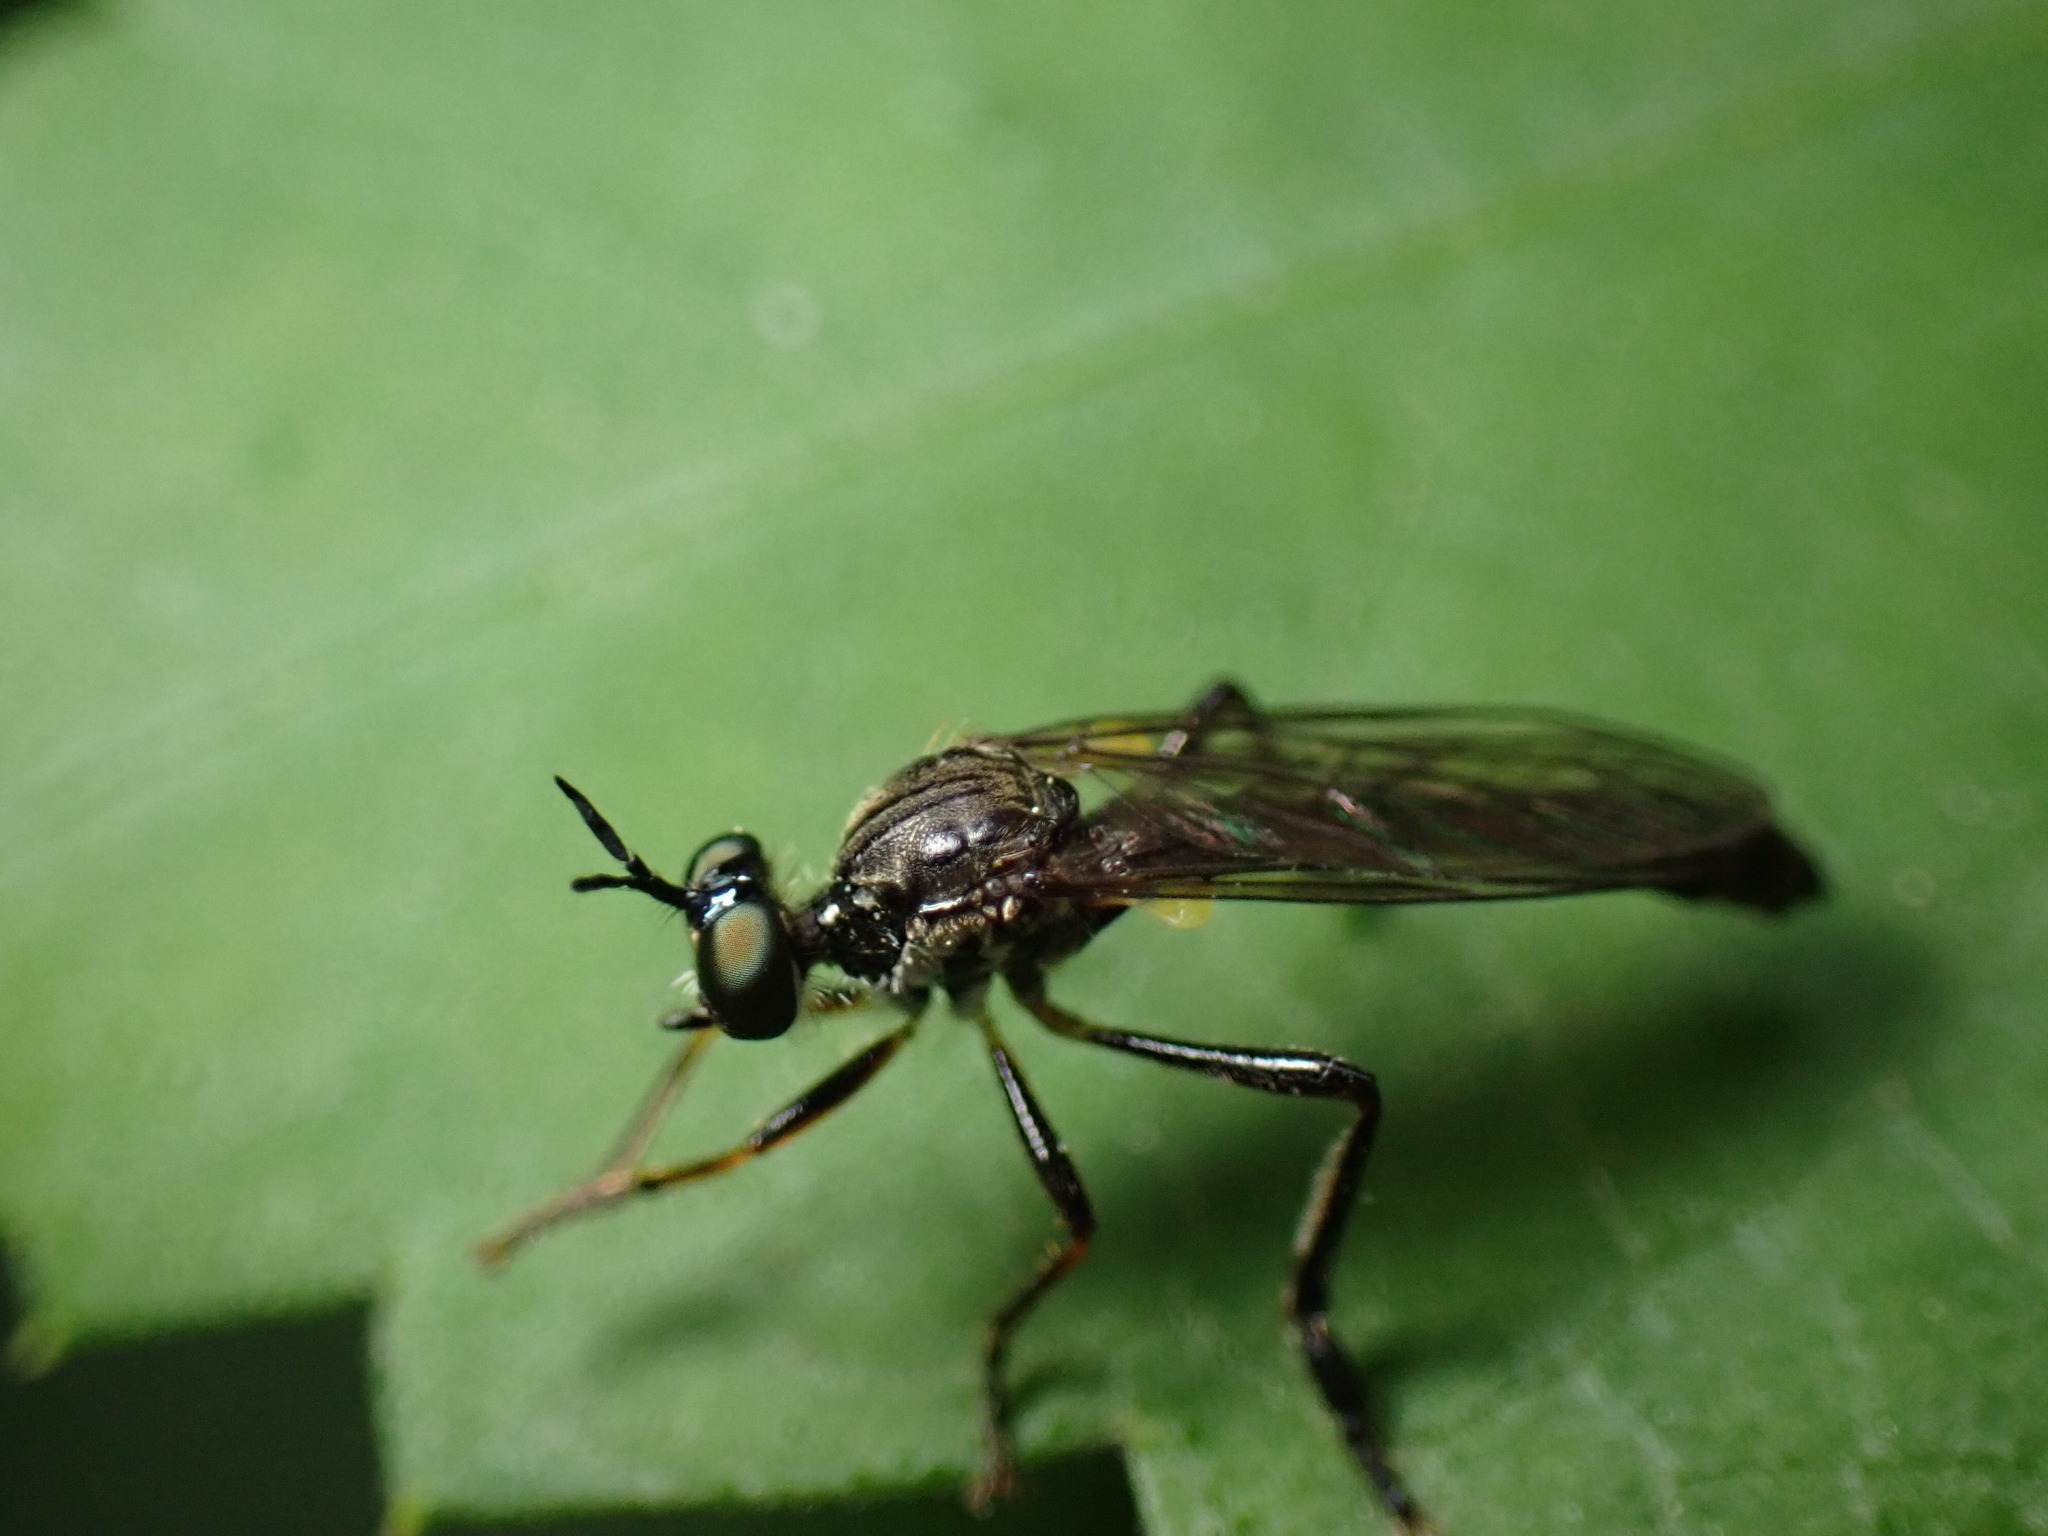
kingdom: Animalia
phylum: Arthropoda
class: Insecta
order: Diptera
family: Asilidae
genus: Dioctria
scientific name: Dioctria hyalipennis
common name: Stripe-legged robberfly
